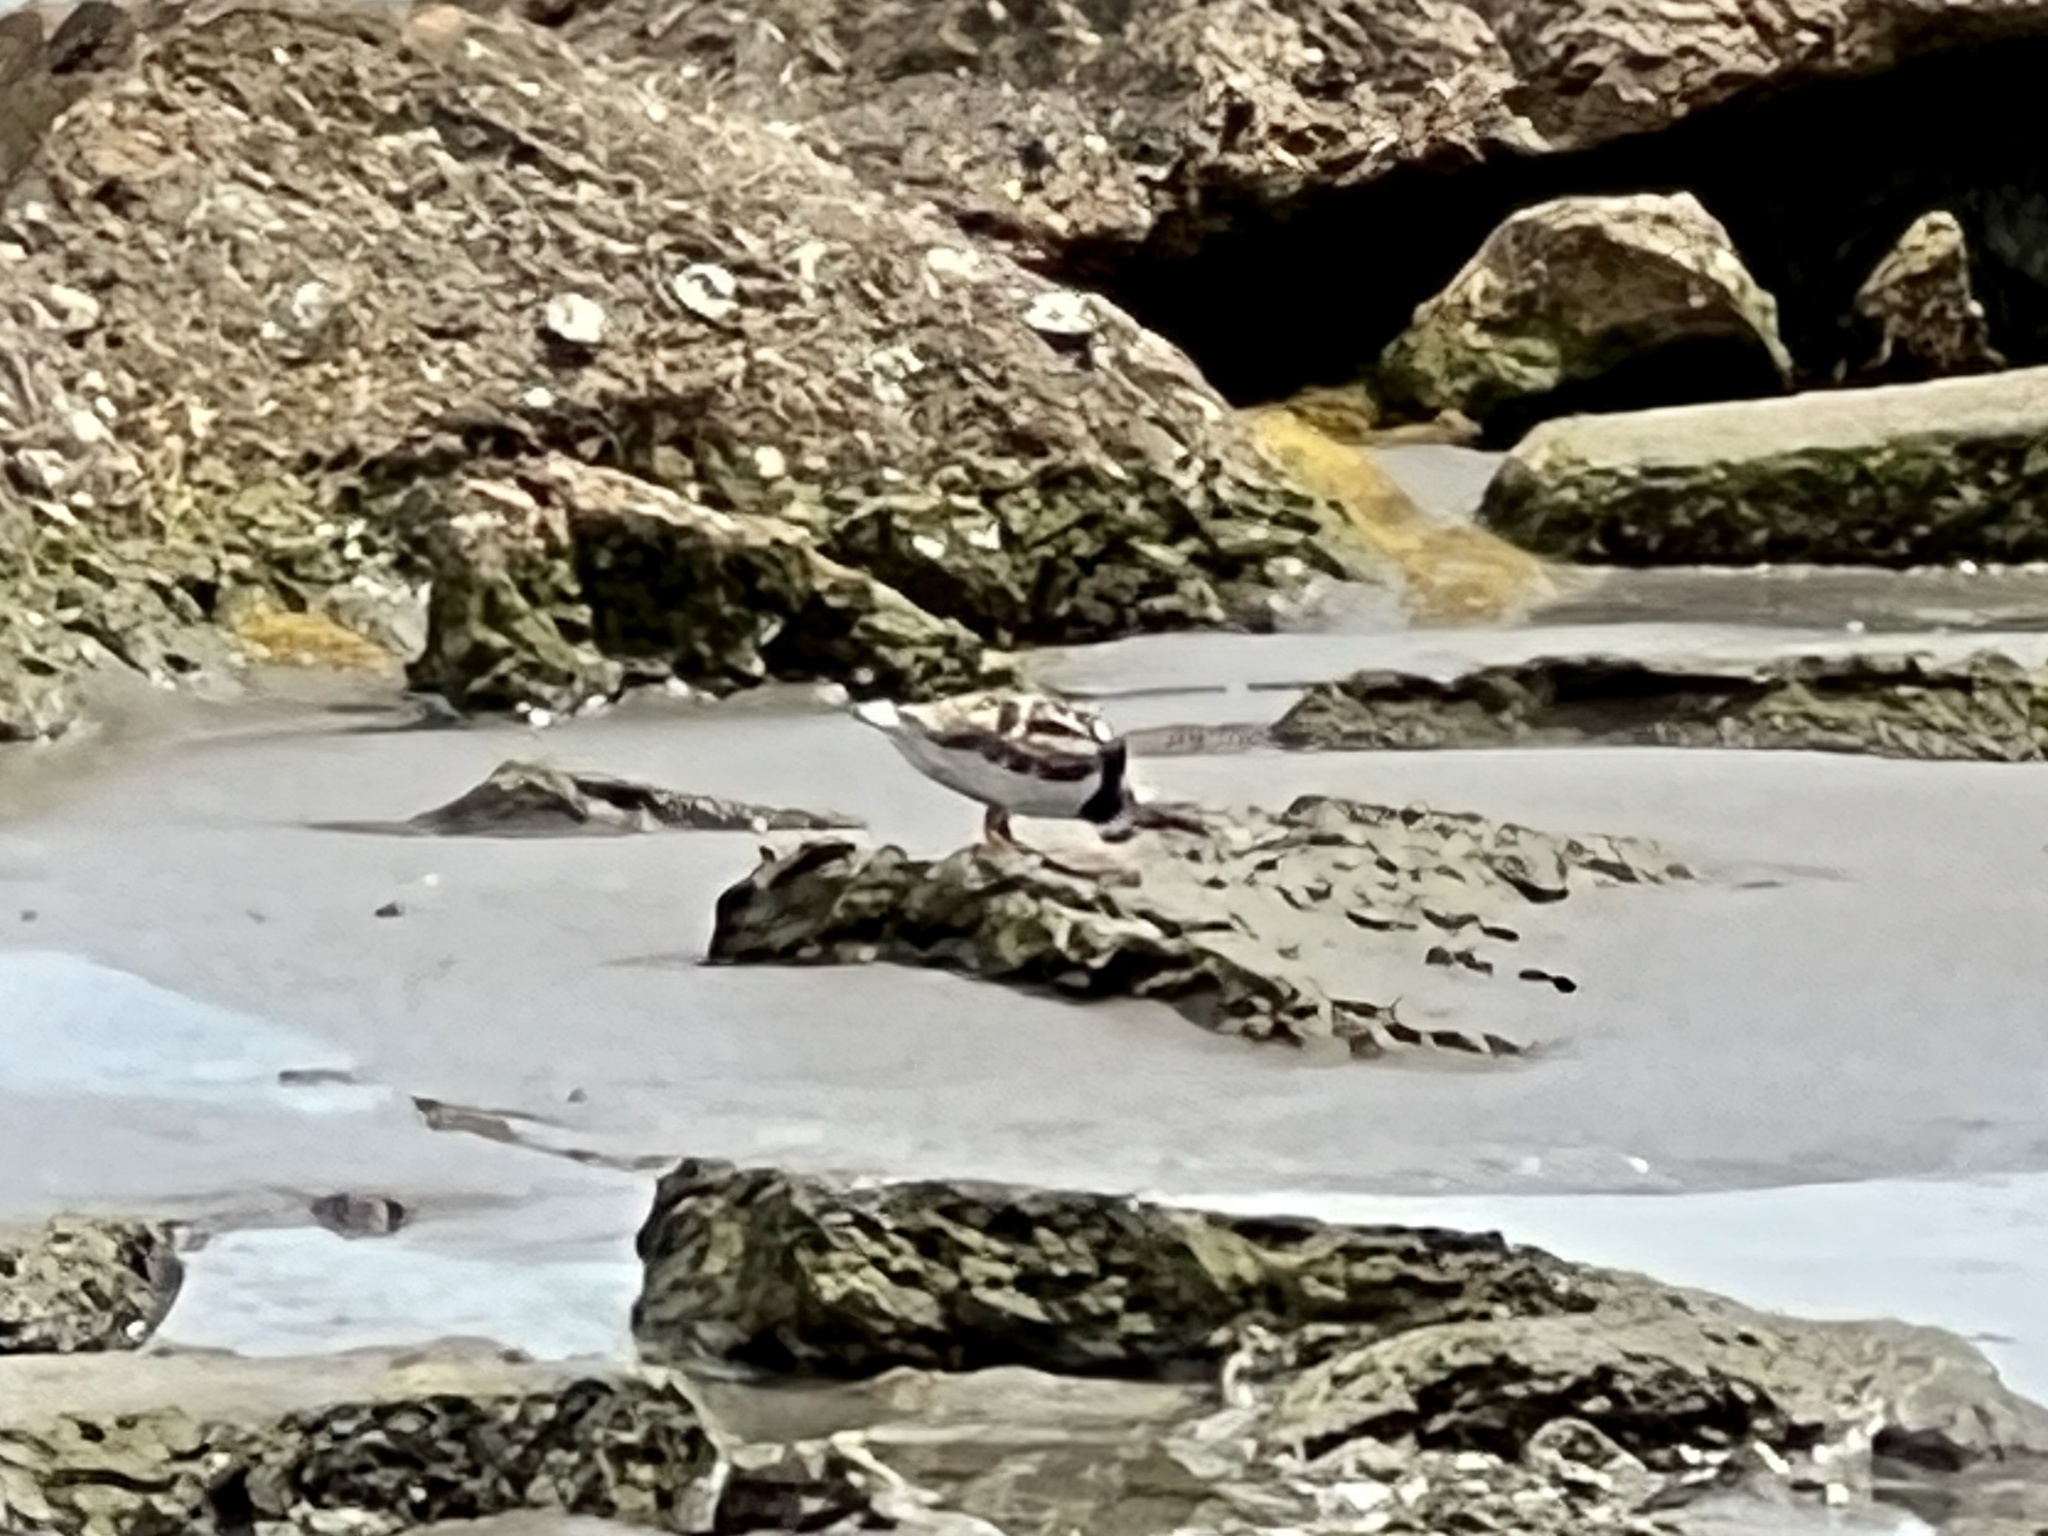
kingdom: Animalia
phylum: Chordata
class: Aves
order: Charadriiformes
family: Scolopacidae
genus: Arenaria
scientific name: Arenaria interpres
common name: Ruddy turnstone
